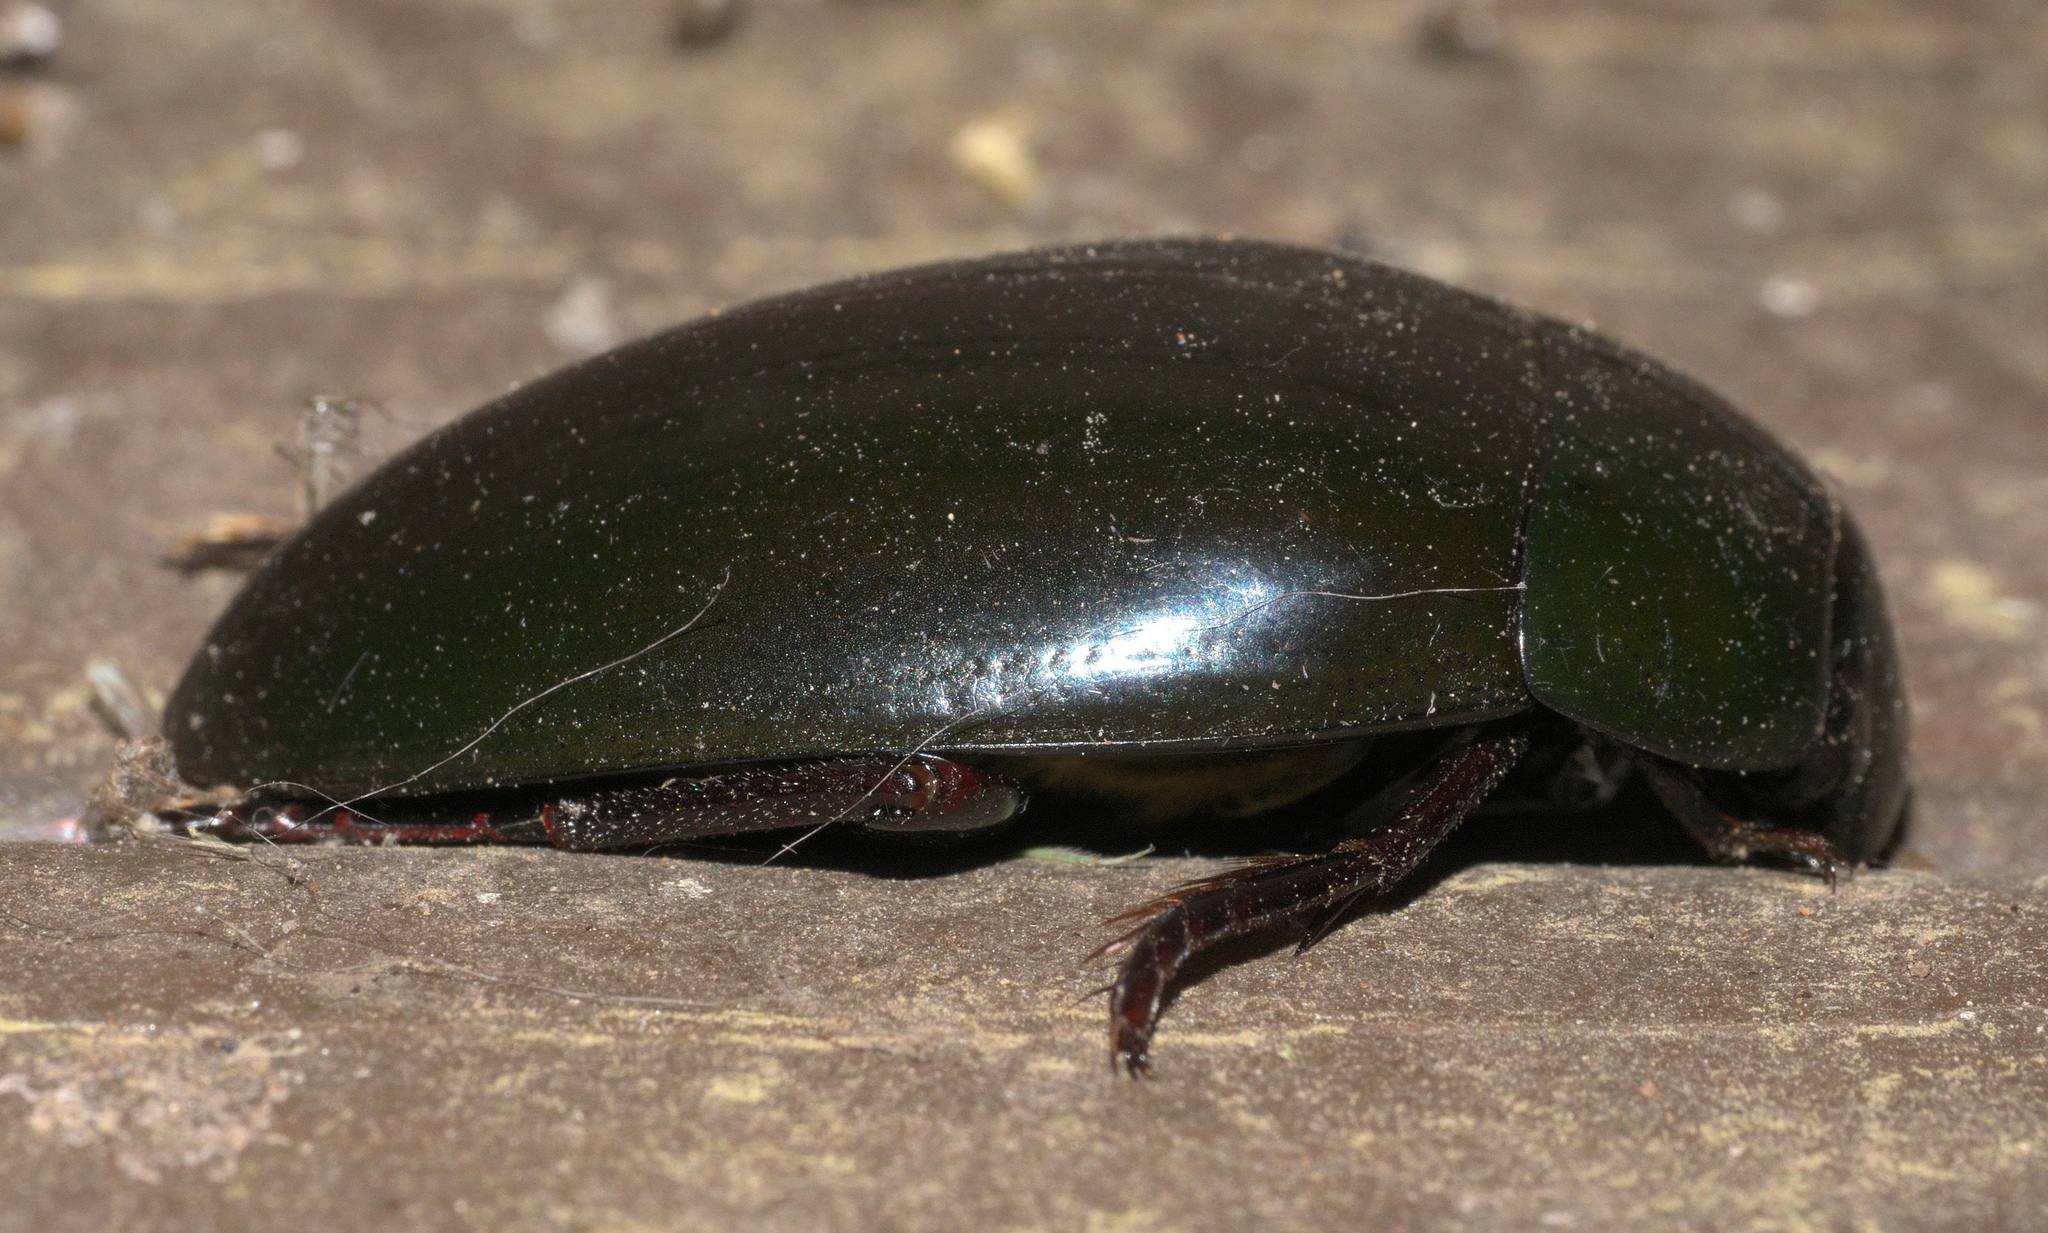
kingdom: Animalia
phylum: Arthropoda
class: Insecta
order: Coleoptera
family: Hydrophilidae
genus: Hydrophilus
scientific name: Hydrophilus ovatus
